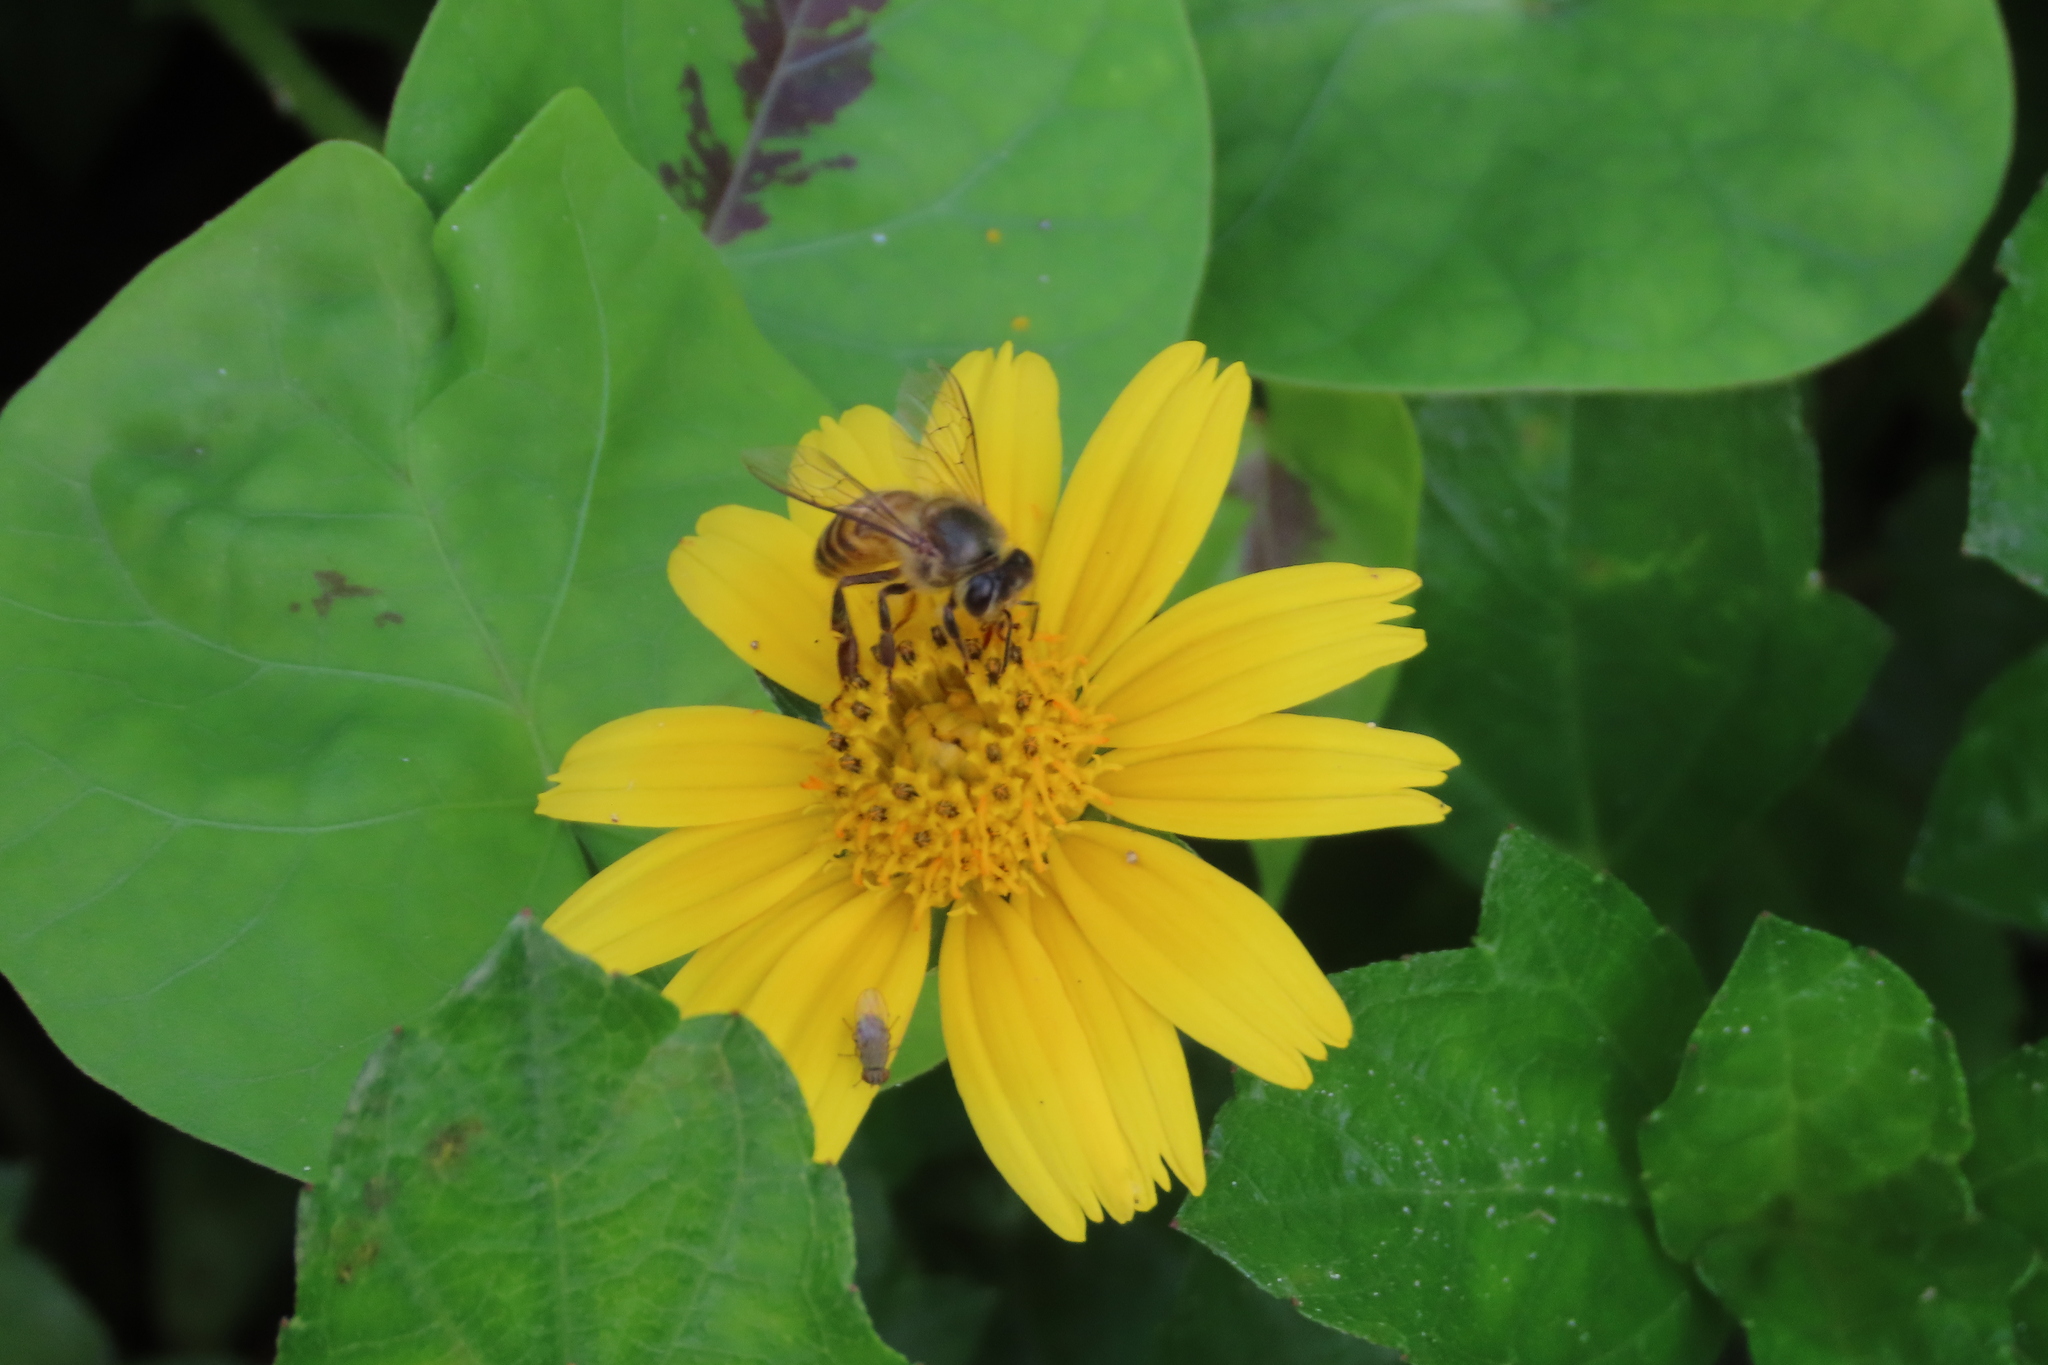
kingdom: Animalia
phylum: Arthropoda
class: Insecta
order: Hymenoptera
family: Apidae
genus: Apis
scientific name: Apis cerana
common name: Honey bee
